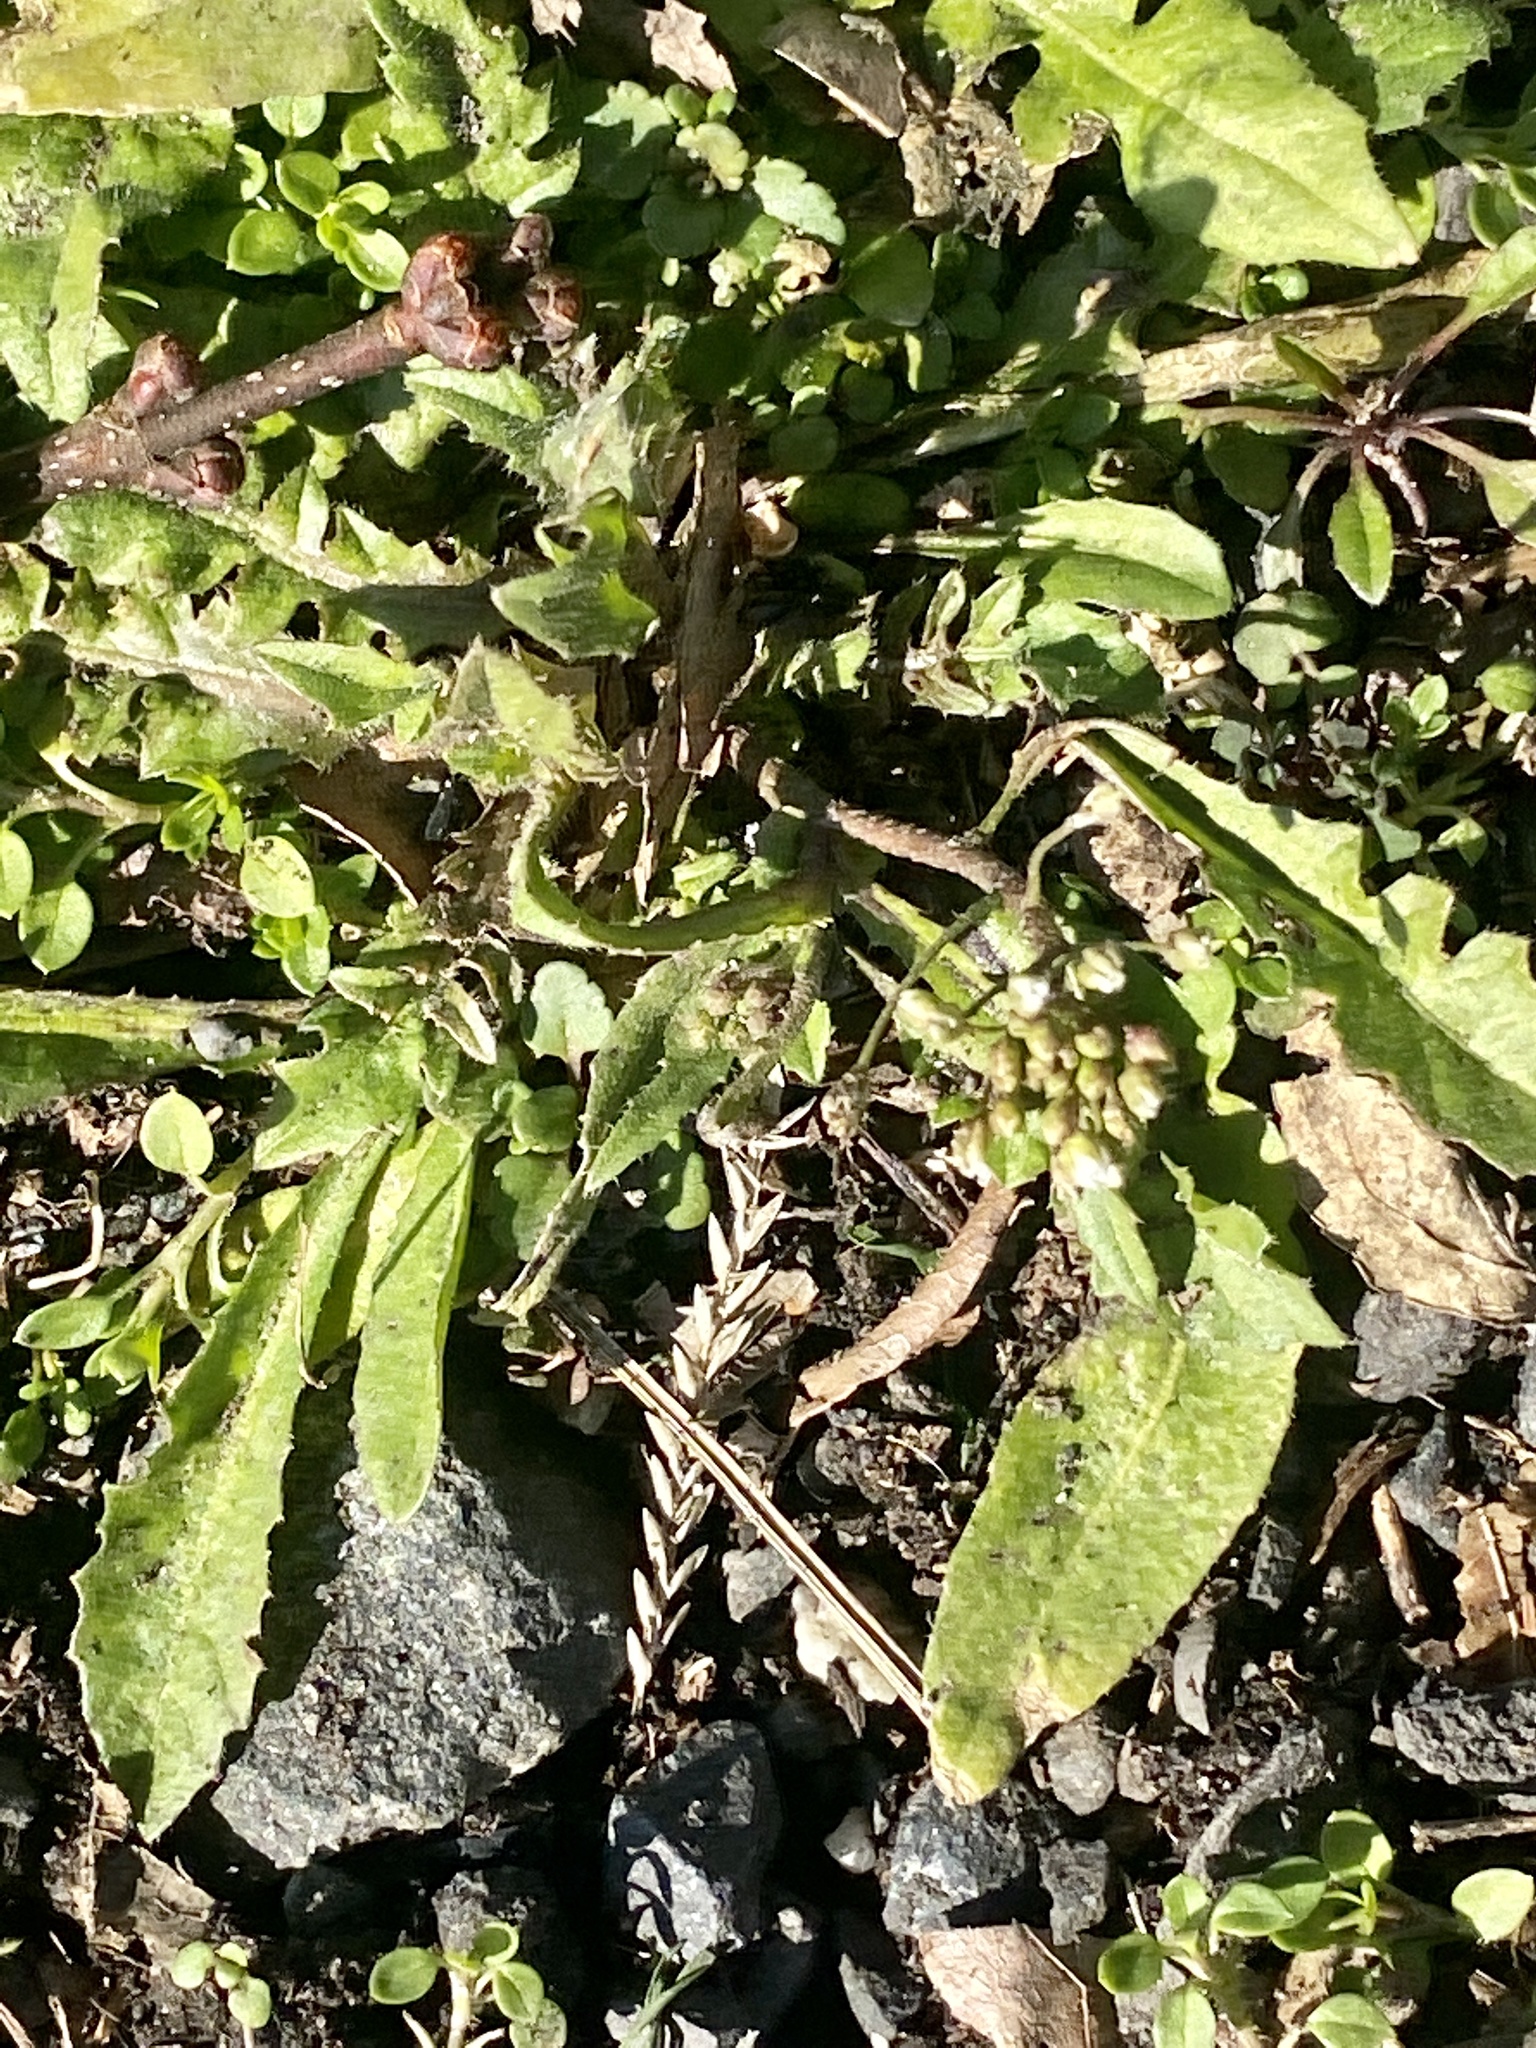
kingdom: Plantae
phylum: Tracheophyta
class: Magnoliopsida
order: Brassicales
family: Brassicaceae
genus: Capsella
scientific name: Capsella bursa-pastoris
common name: Shepherd's purse
